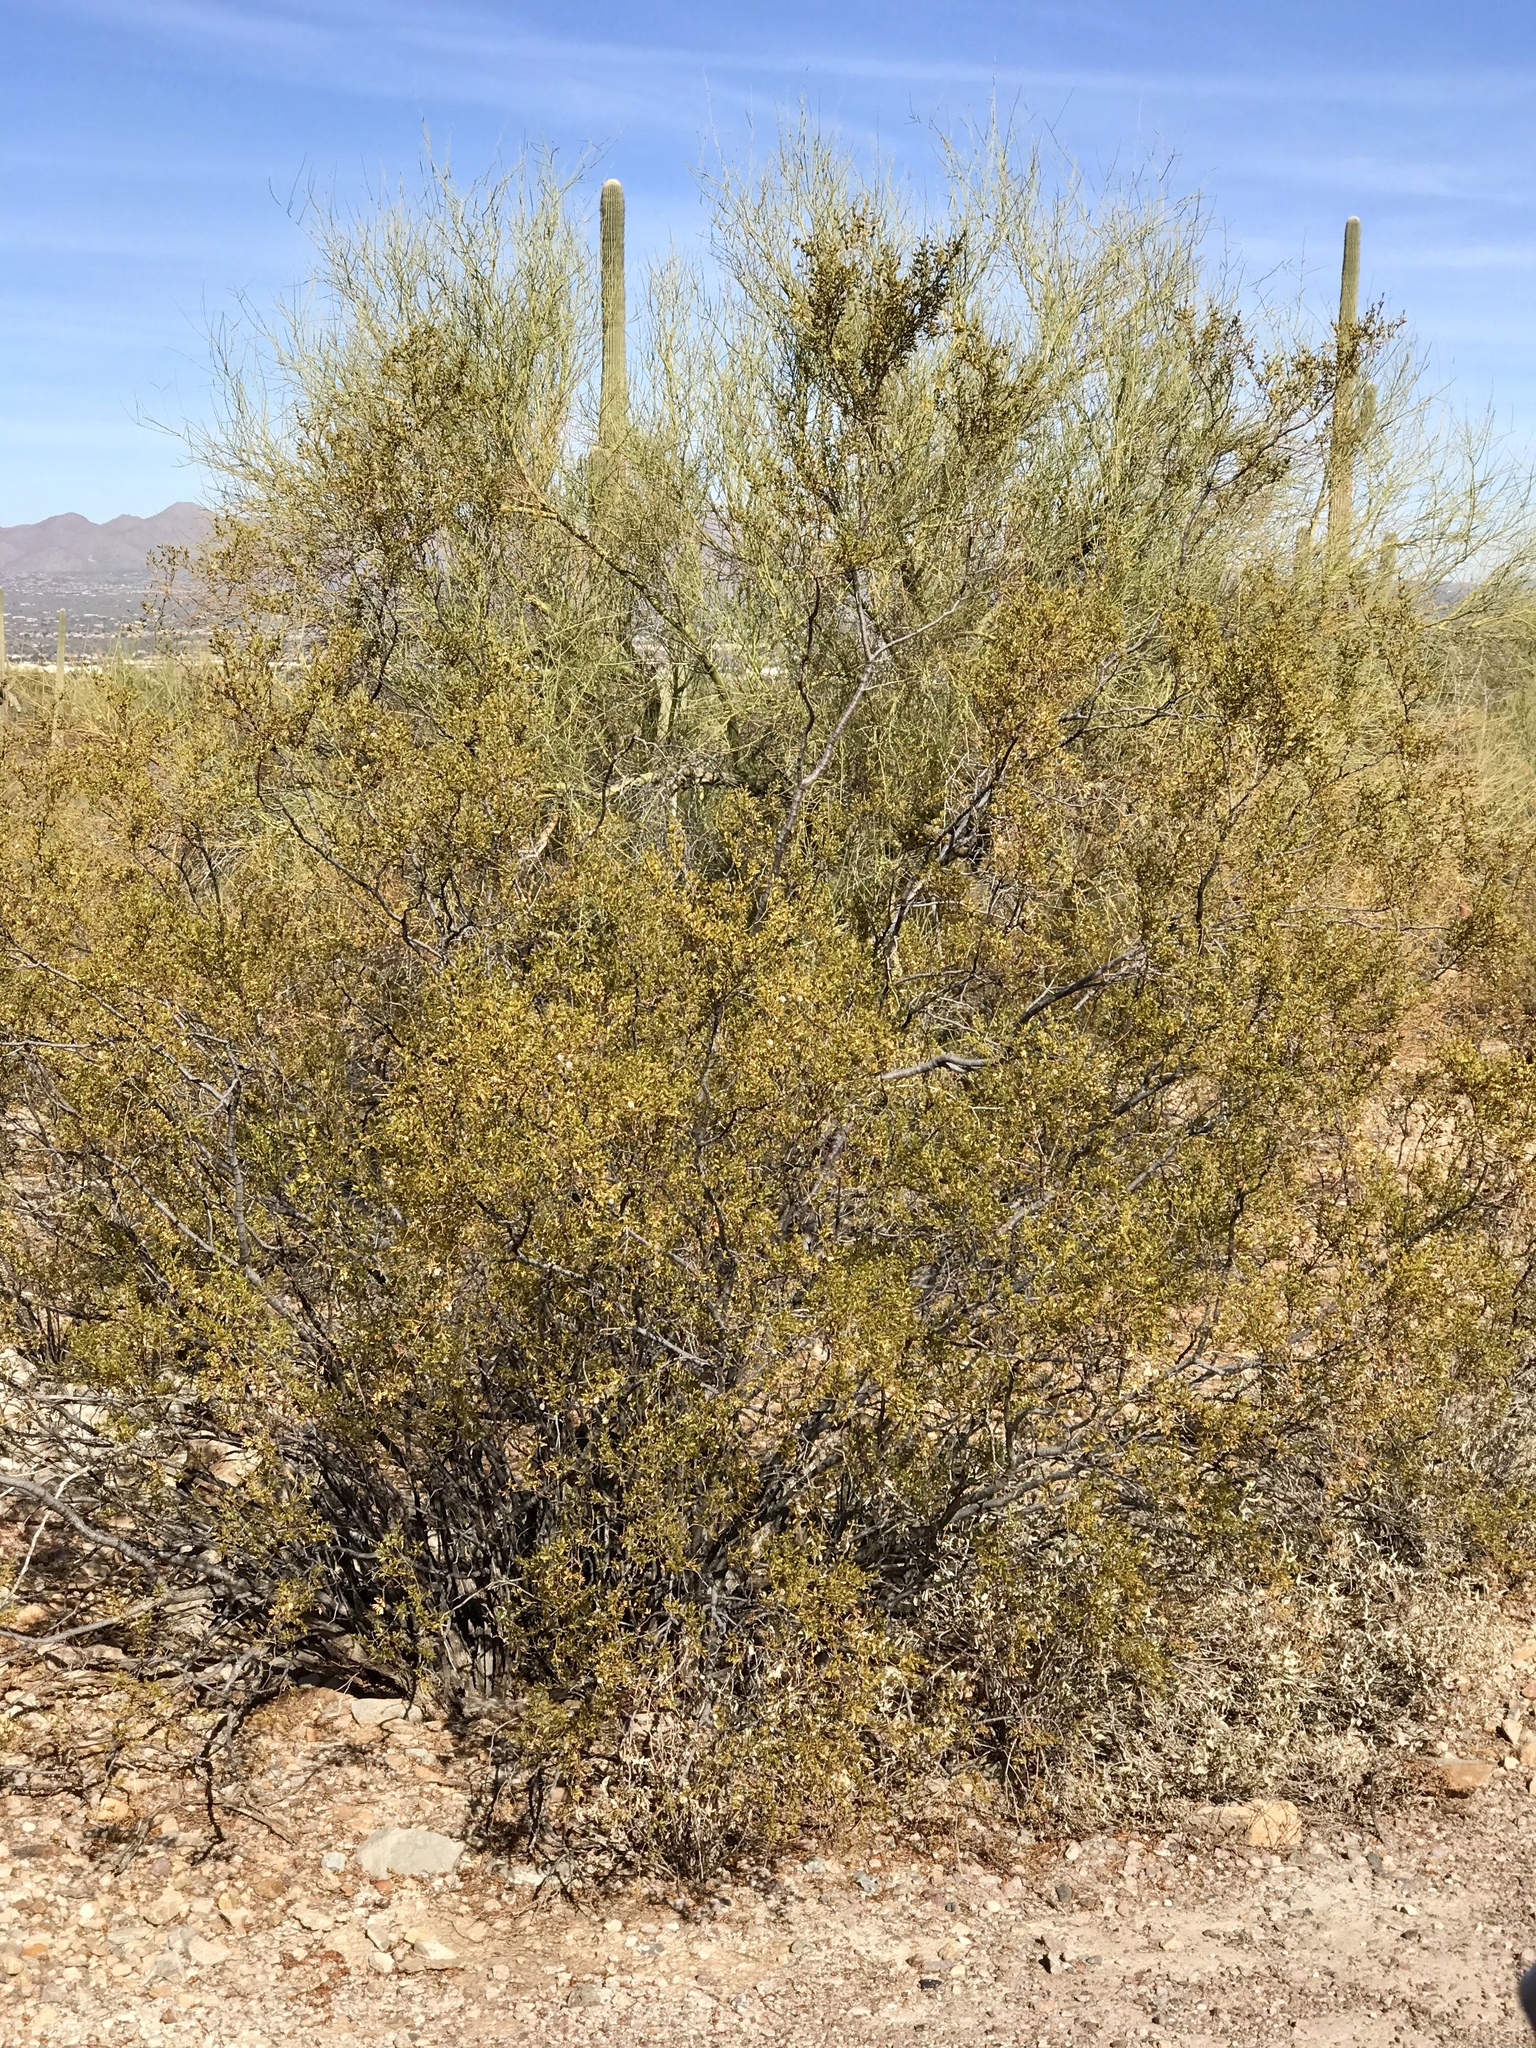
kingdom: Plantae
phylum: Tracheophyta
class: Magnoliopsida
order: Zygophyllales
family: Zygophyllaceae
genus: Larrea
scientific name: Larrea tridentata
